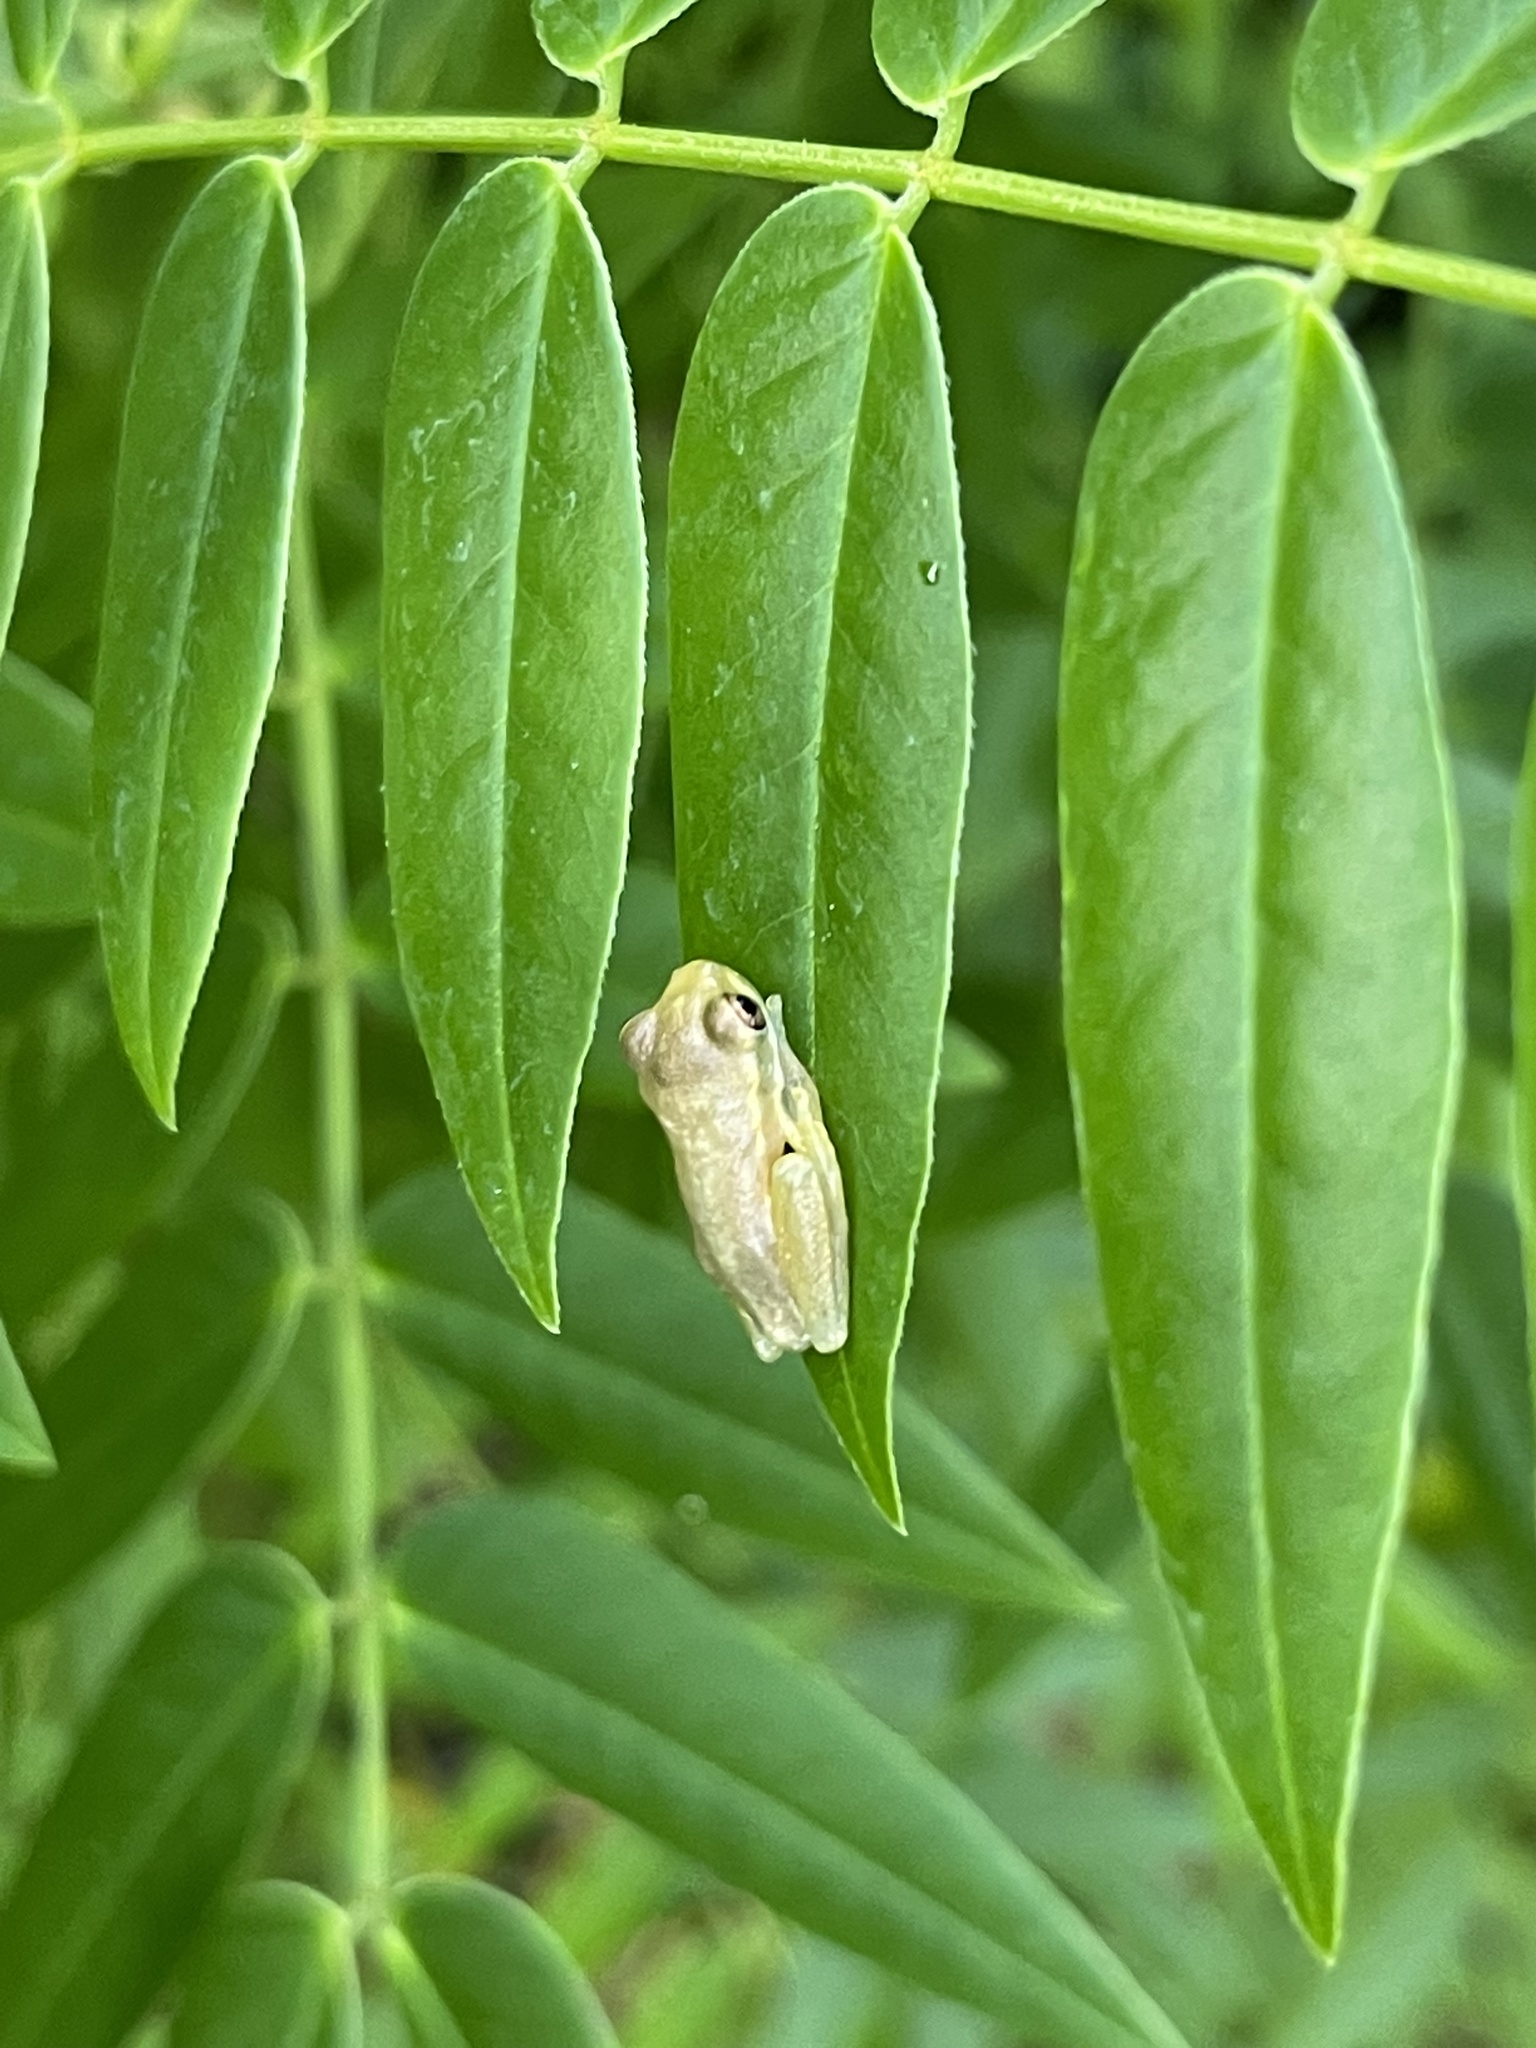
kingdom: Animalia
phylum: Chordata
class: Amphibia
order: Anura
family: Hylidae
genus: Osteopilus
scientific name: Osteopilus septentrionalis
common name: Cuban treefrog
